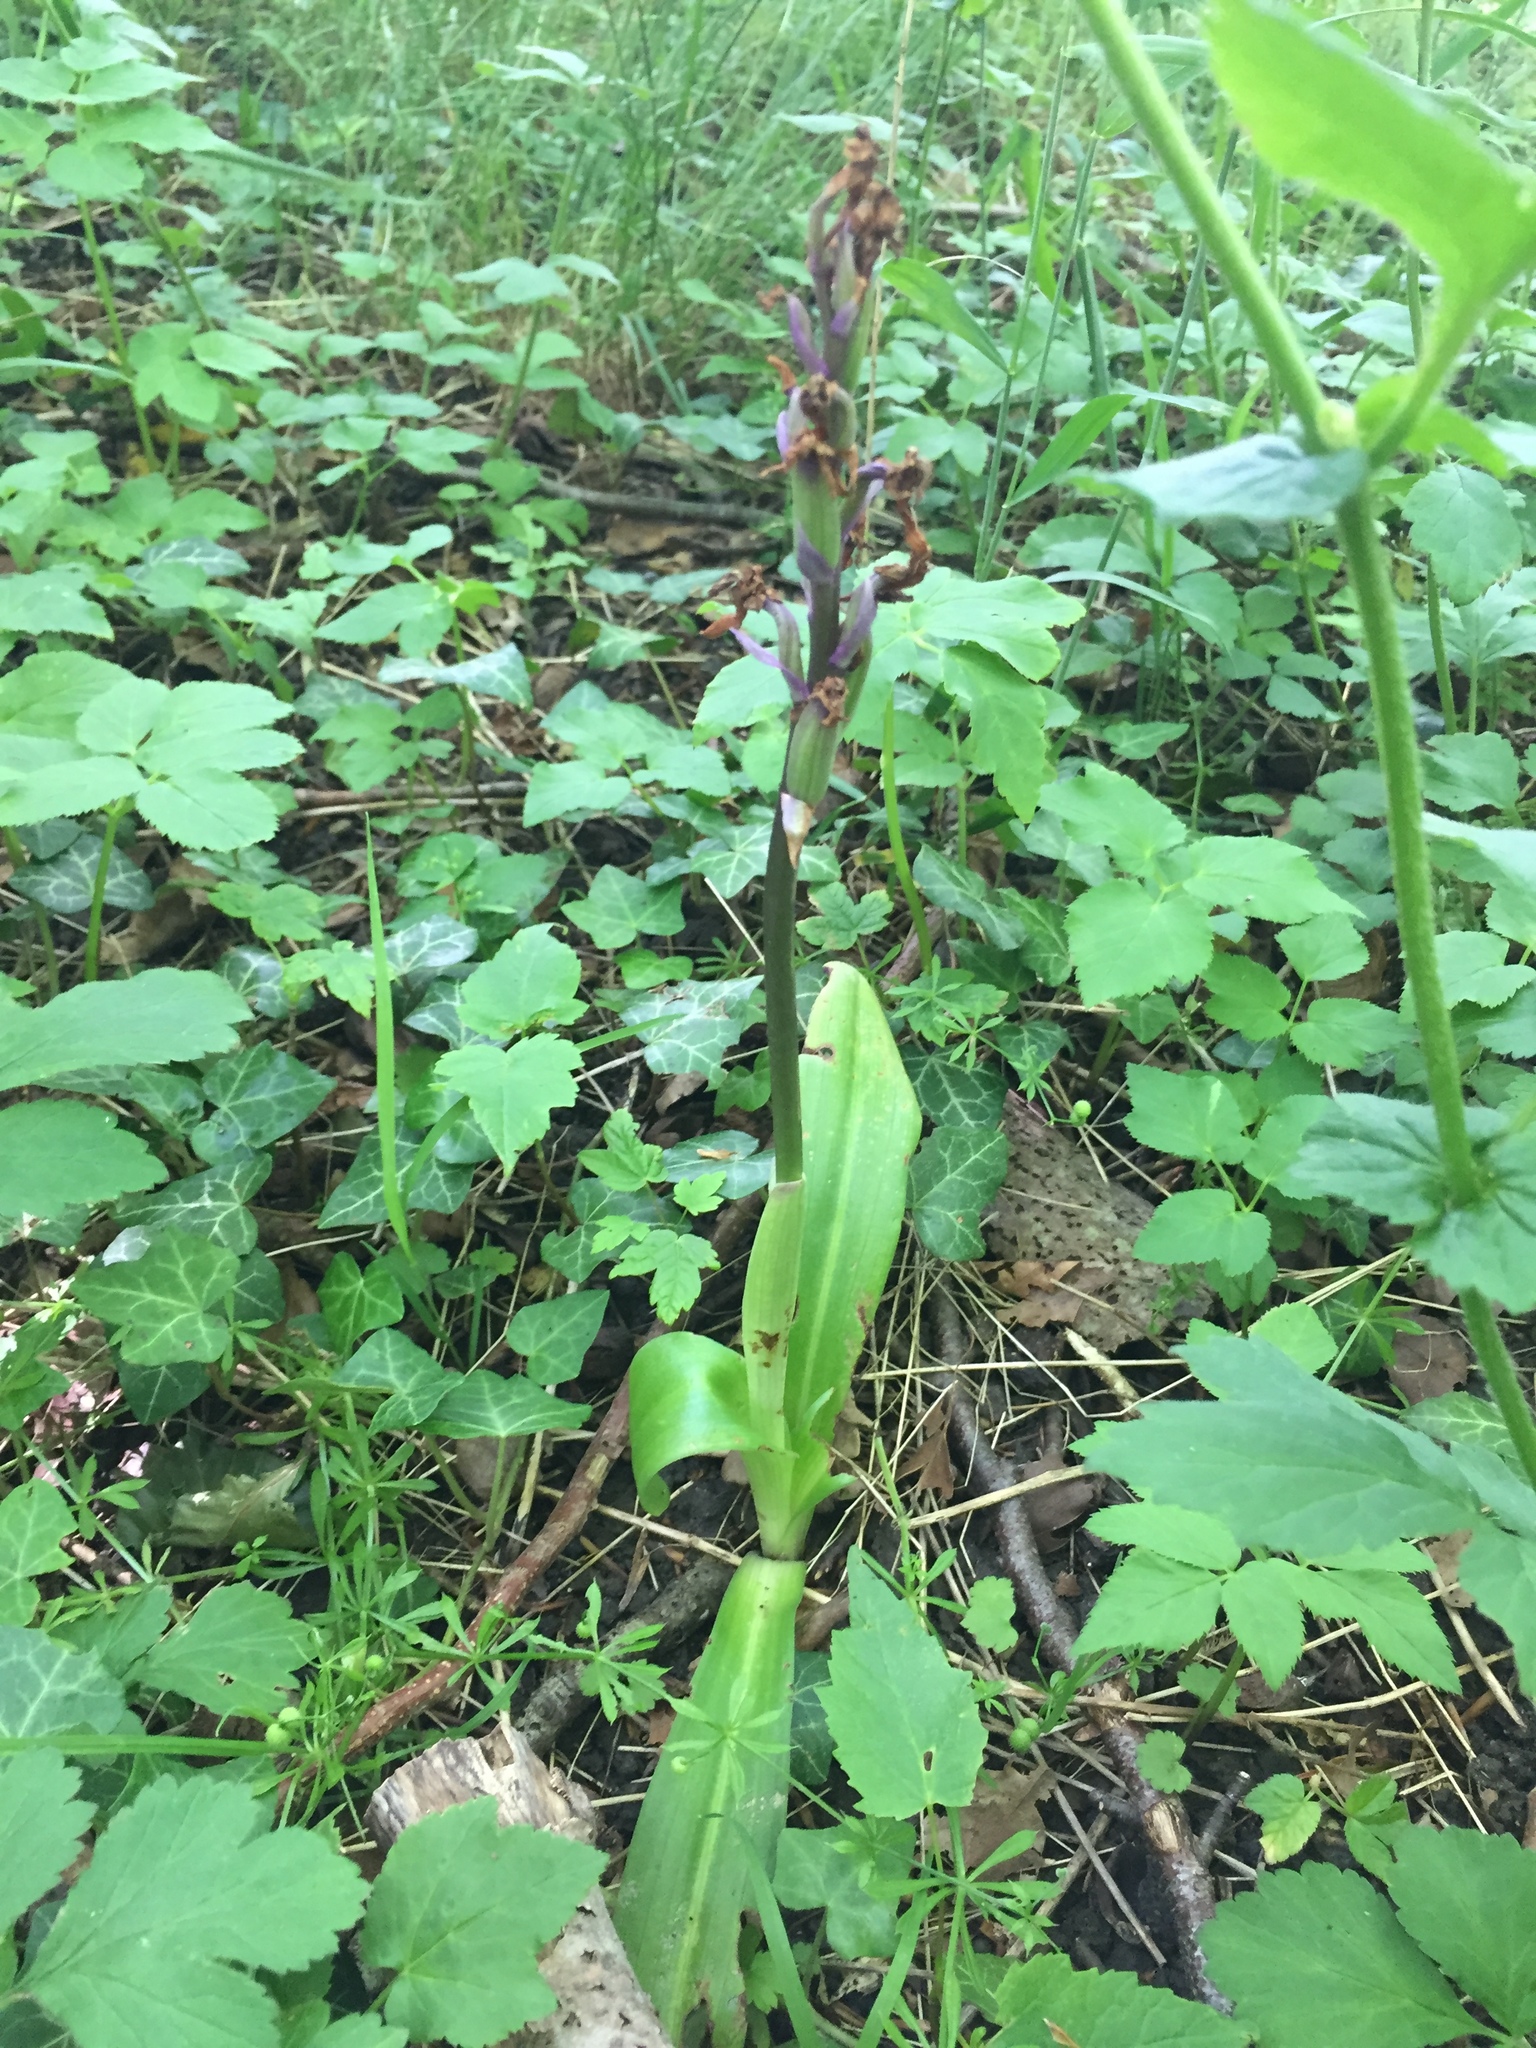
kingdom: Plantae
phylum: Tracheophyta
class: Liliopsida
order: Asparagales
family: Orchidaceae
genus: Orchis
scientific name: Orchis mascula
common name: Early-purple orchid
